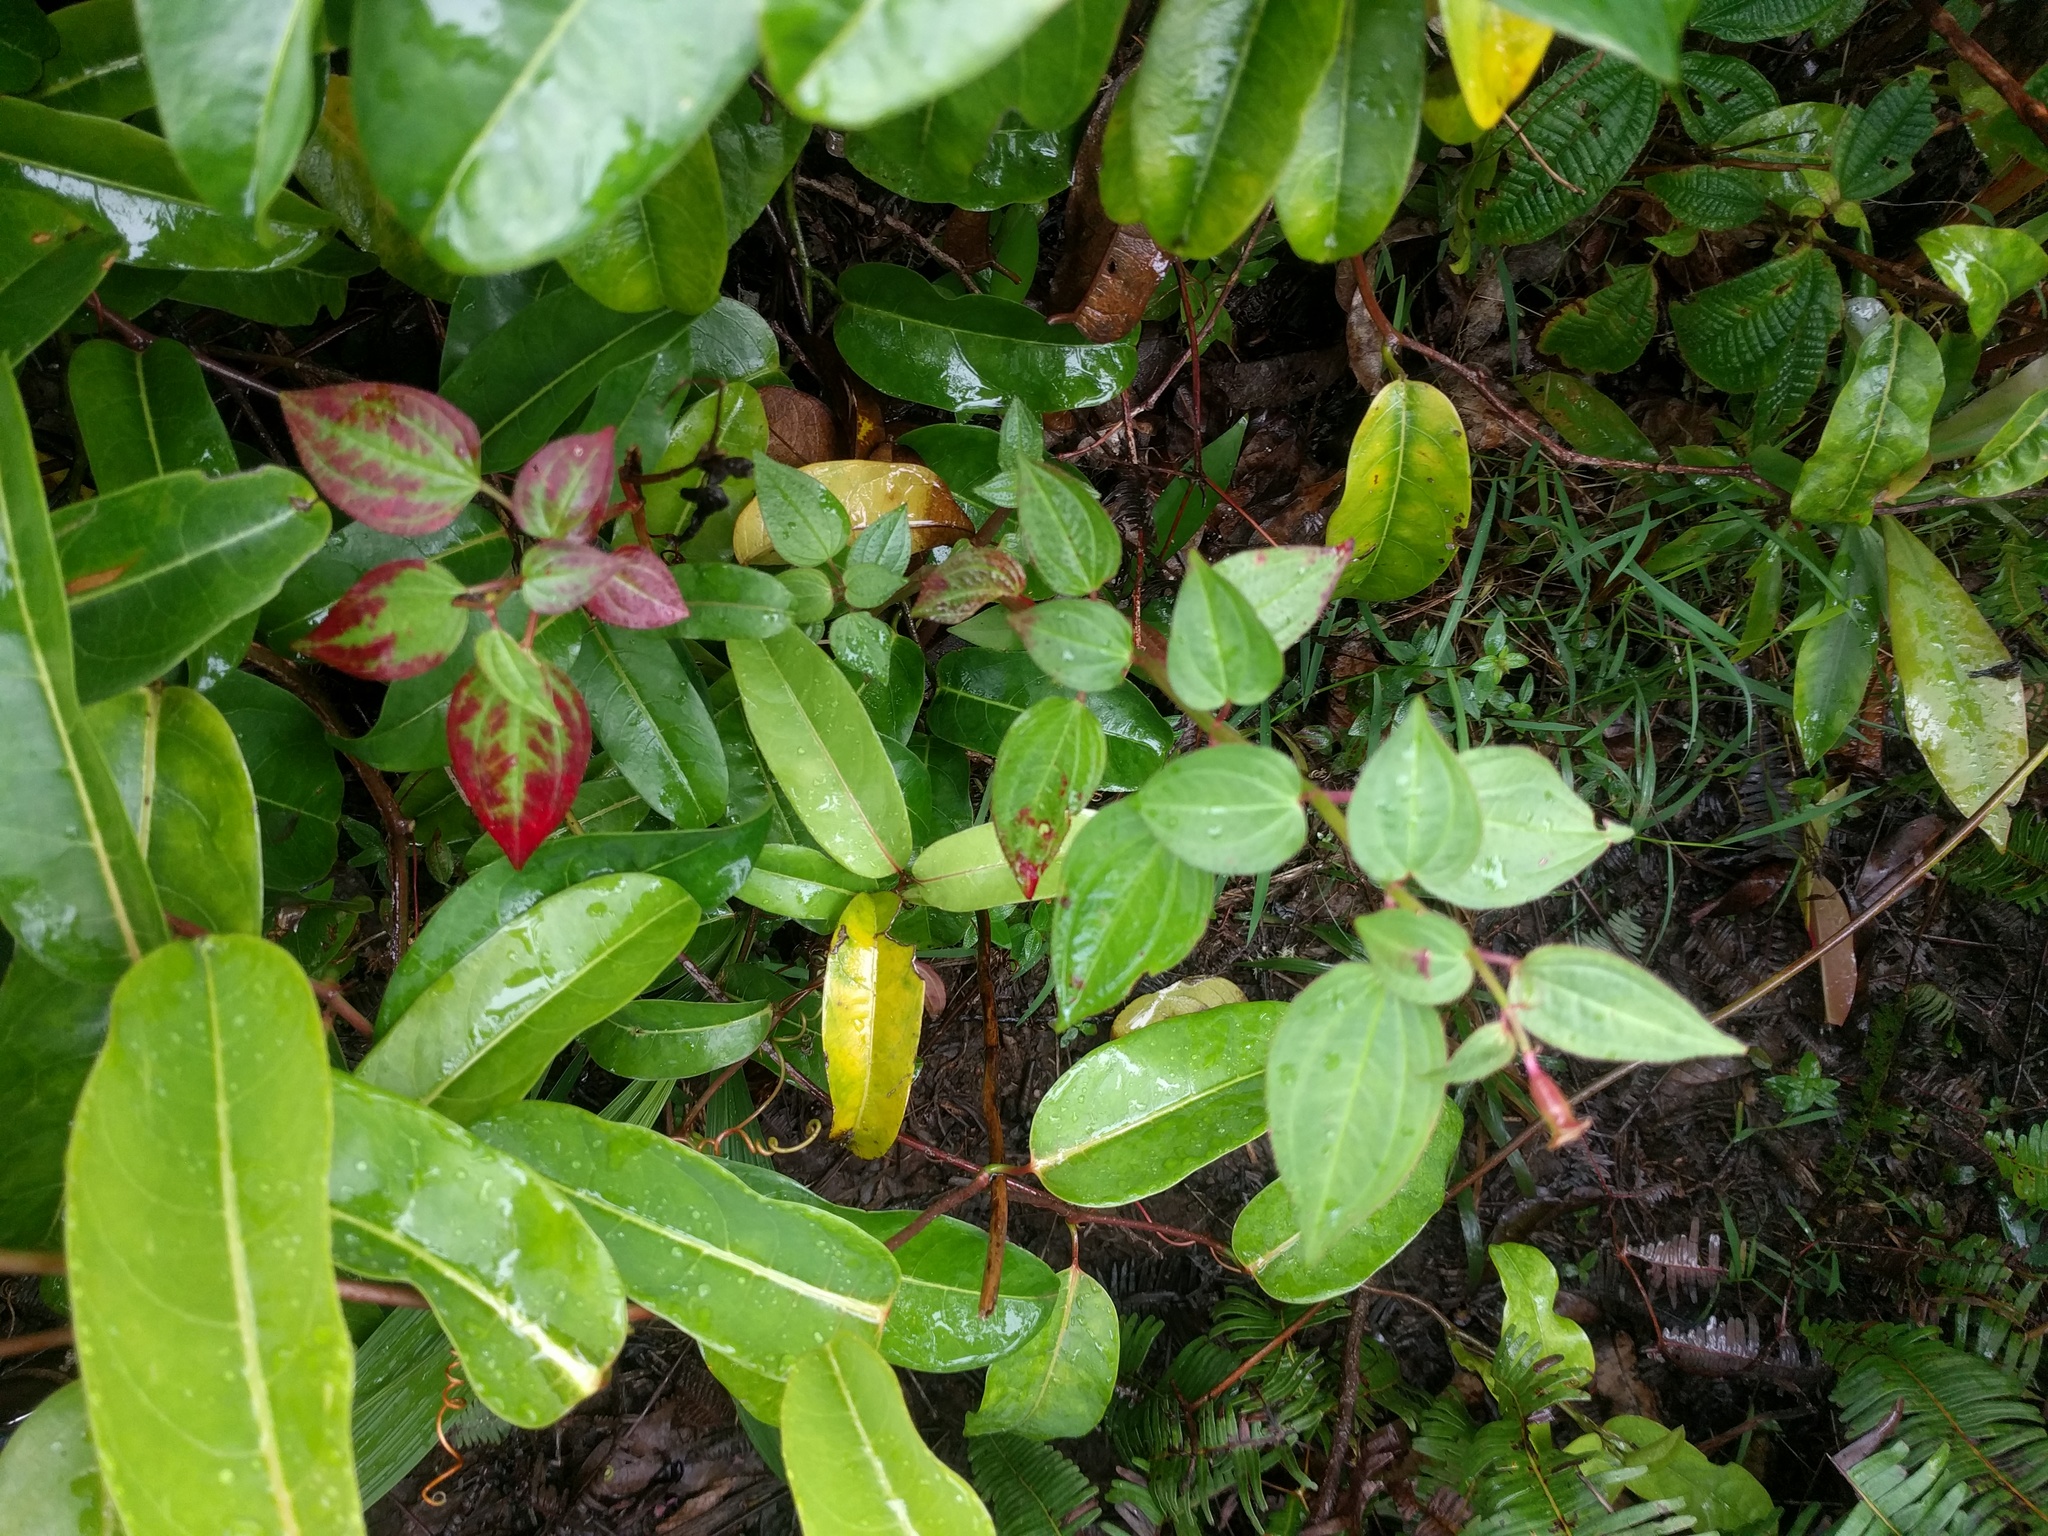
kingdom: Plantae
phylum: Tracheophyta
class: Magnoliopsida
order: Myrtales
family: Melastomataceae
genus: Arthrostemma
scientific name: Arthrostemma ciliatum
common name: Everblooming eavender
